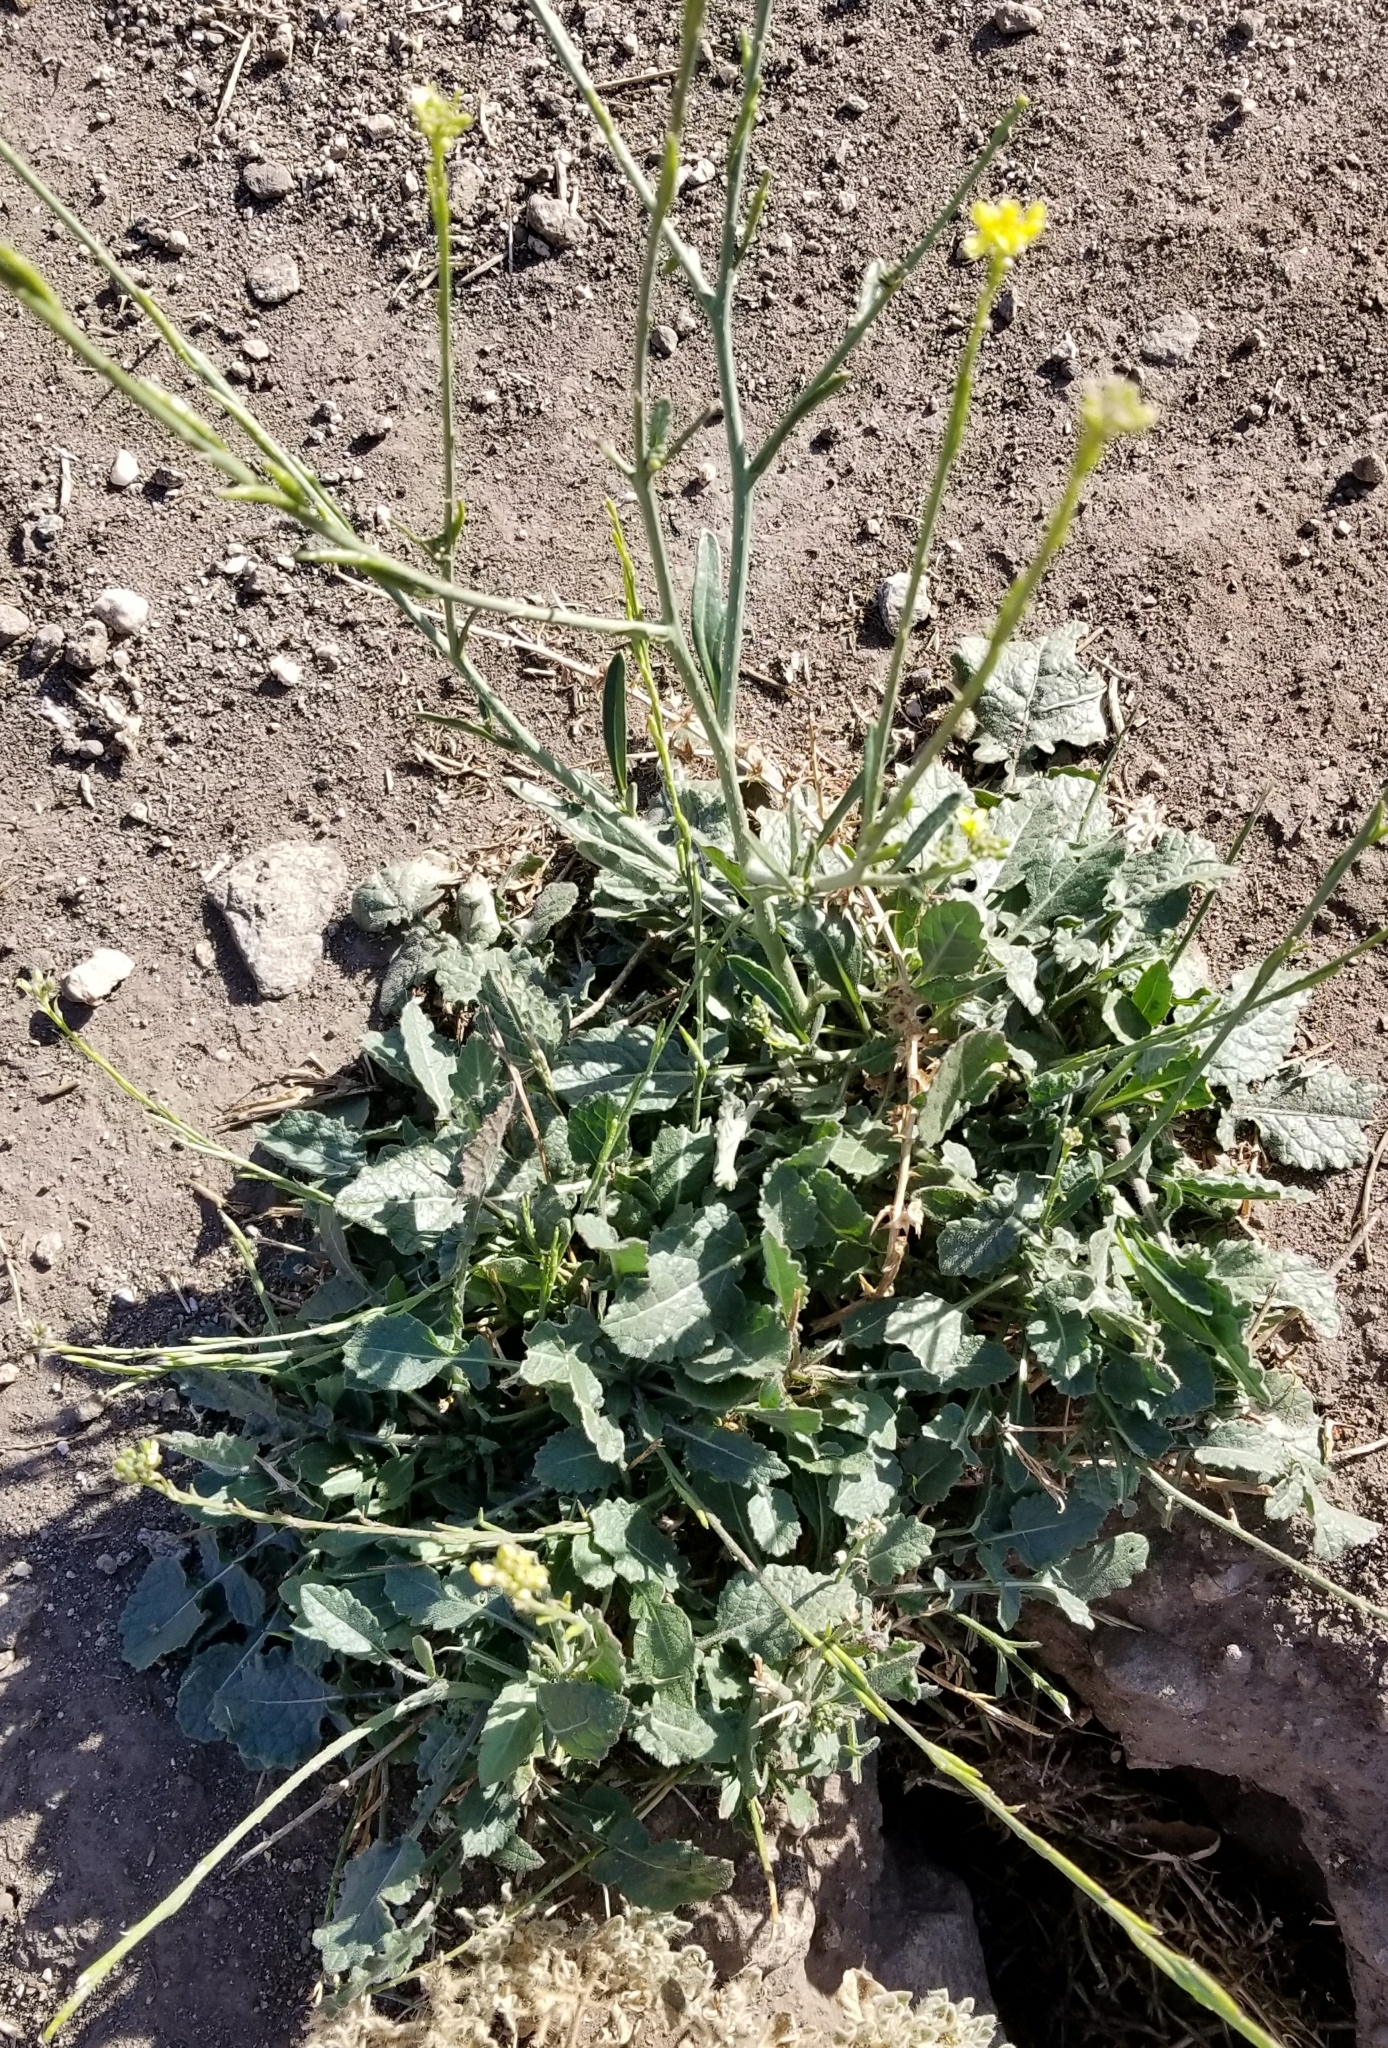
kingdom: Plantae
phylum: Tracheophyta
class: Magnoliopsida
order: Brassicales
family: Brassicaceae
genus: Hirschfeldia
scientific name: Hirschfeldia incana
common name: Hoary mustard
